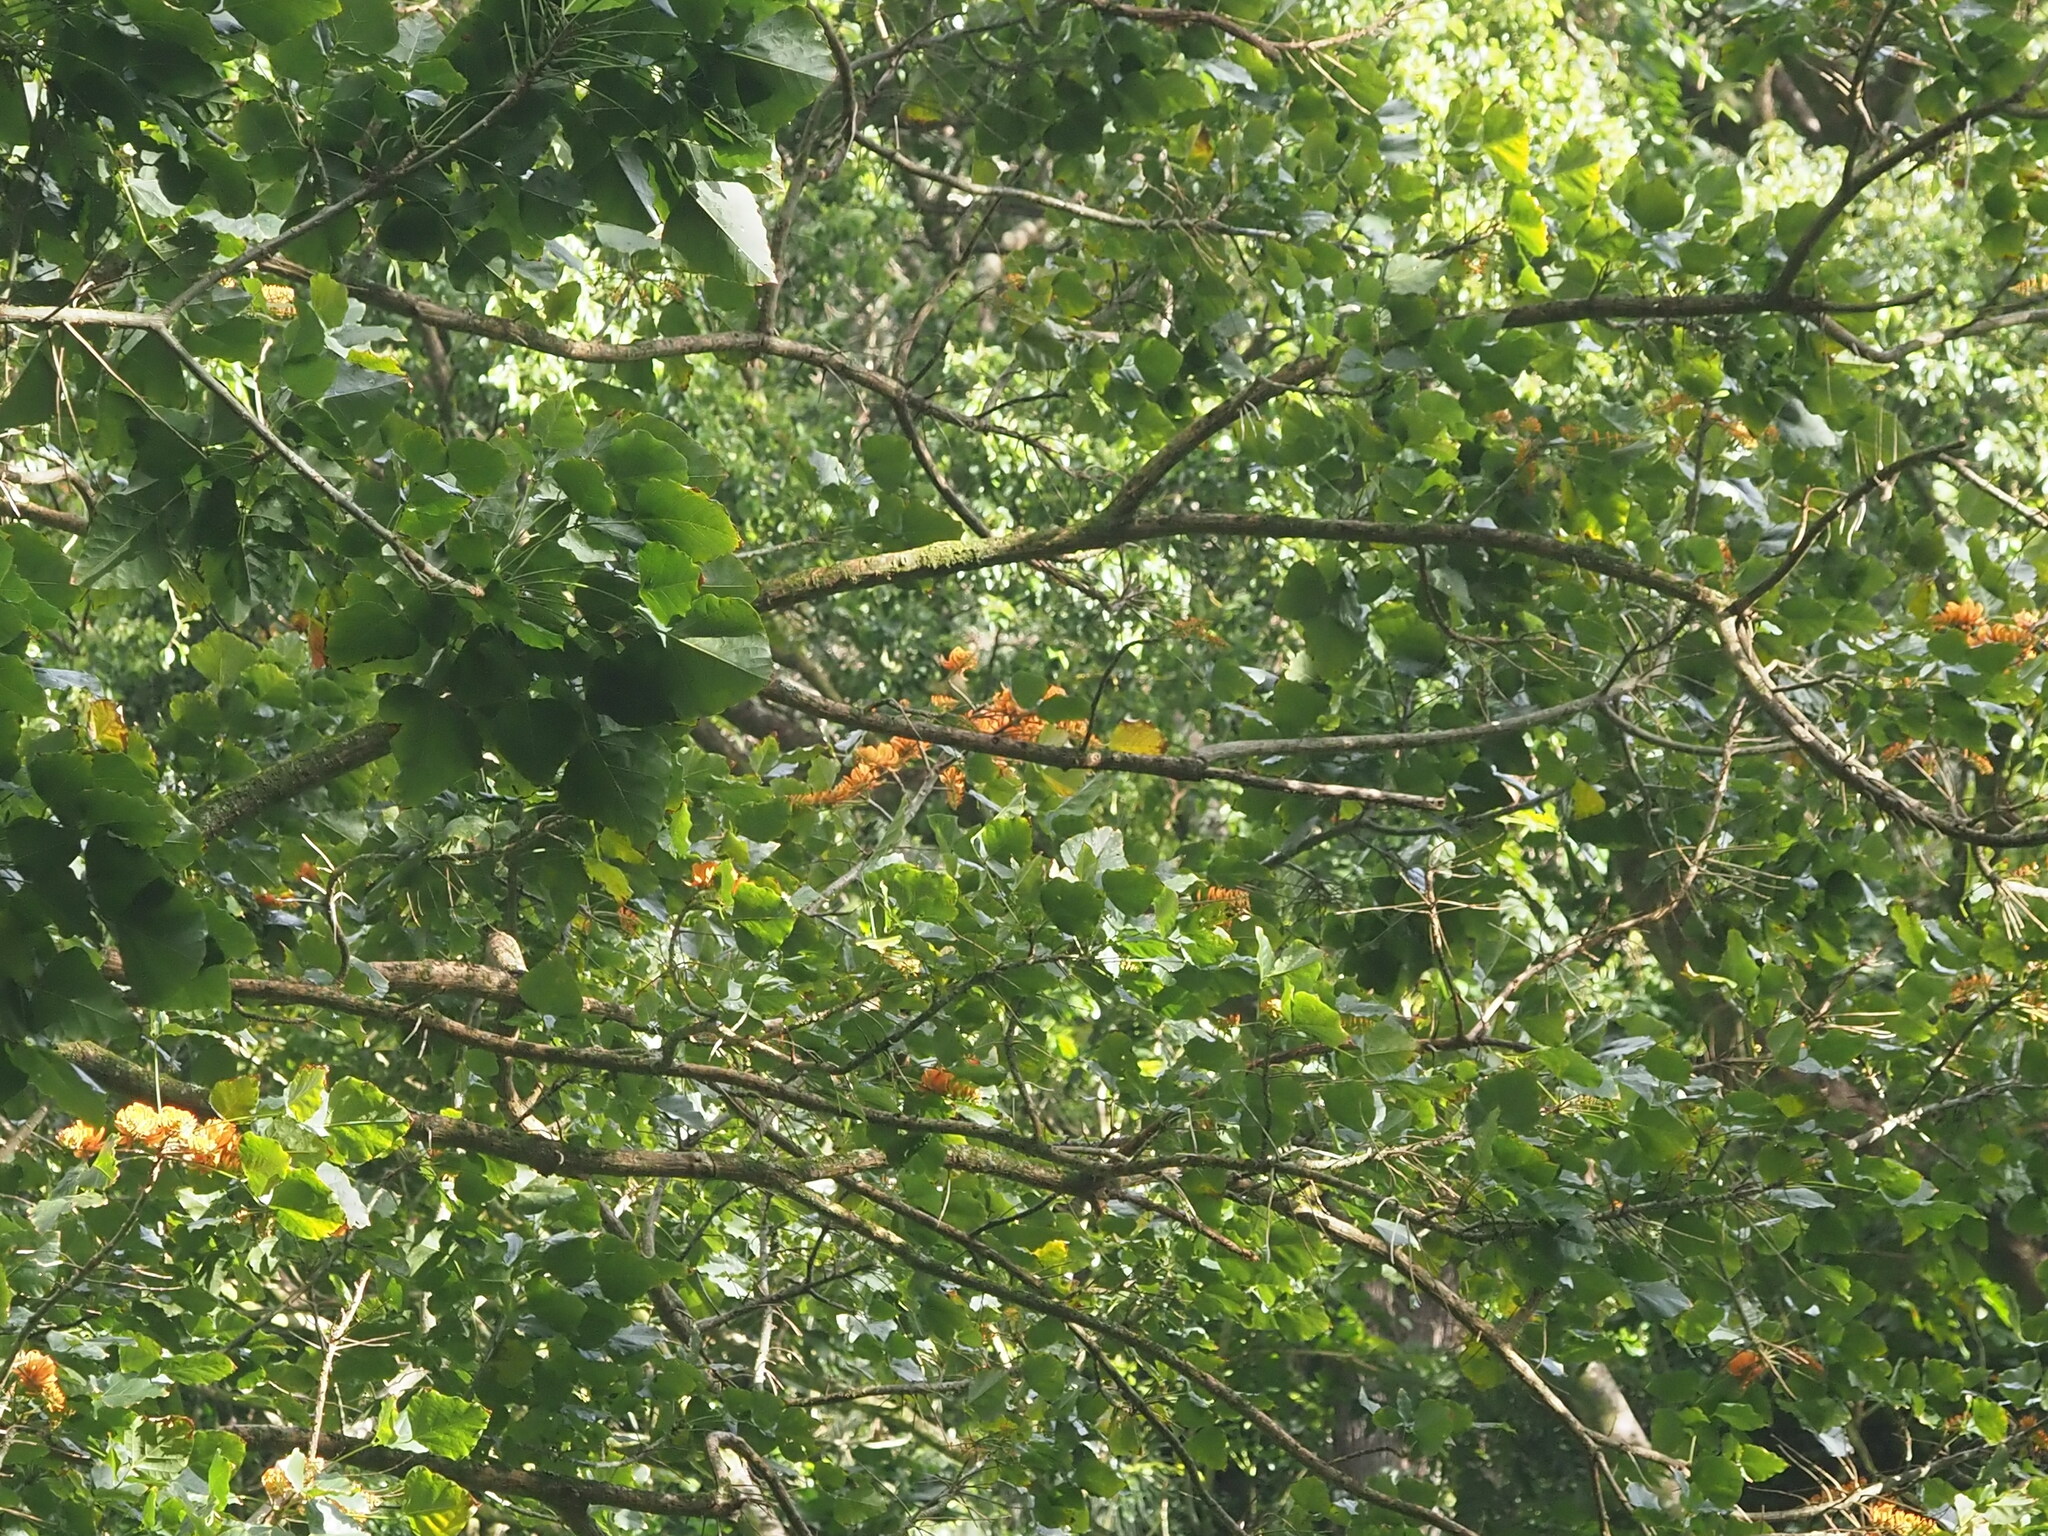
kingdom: Plantae
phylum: Tracheophyta
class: Magnoliopsida
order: Fabales
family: Fabaceae
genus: Erythrina
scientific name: Erythrina poeppigiana
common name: Coral tree
